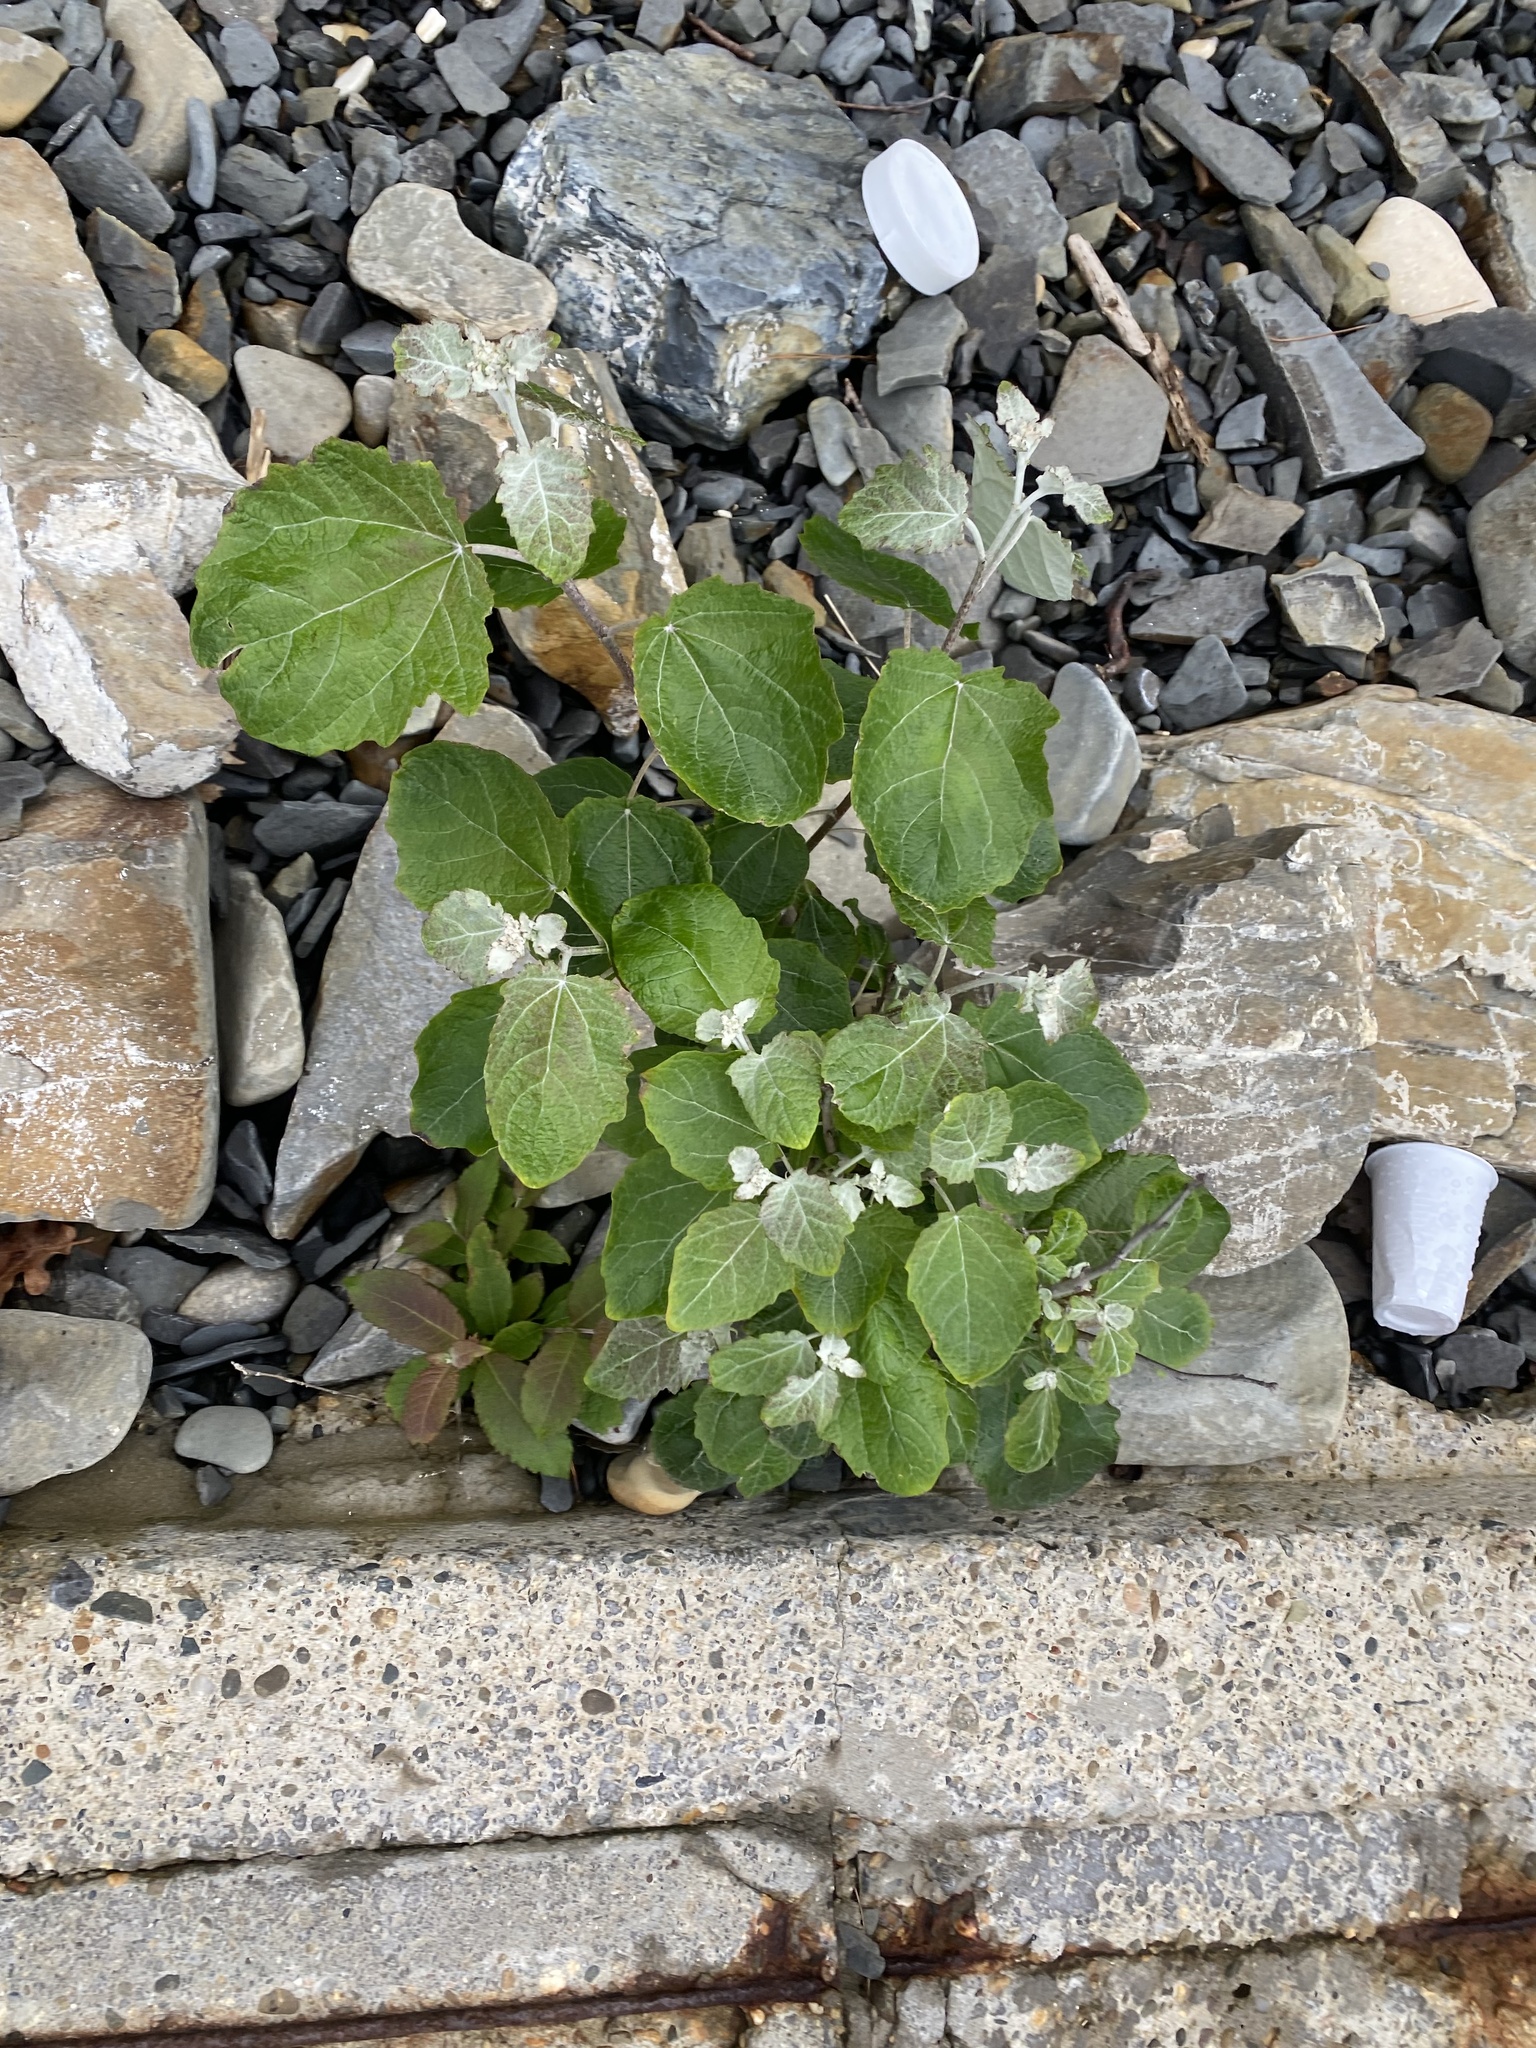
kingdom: Plantae
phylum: Tracheophyta
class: Magnoliopsida
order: Malpighiales
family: Salicaceae
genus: Populus
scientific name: Populus alba
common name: White poplar
